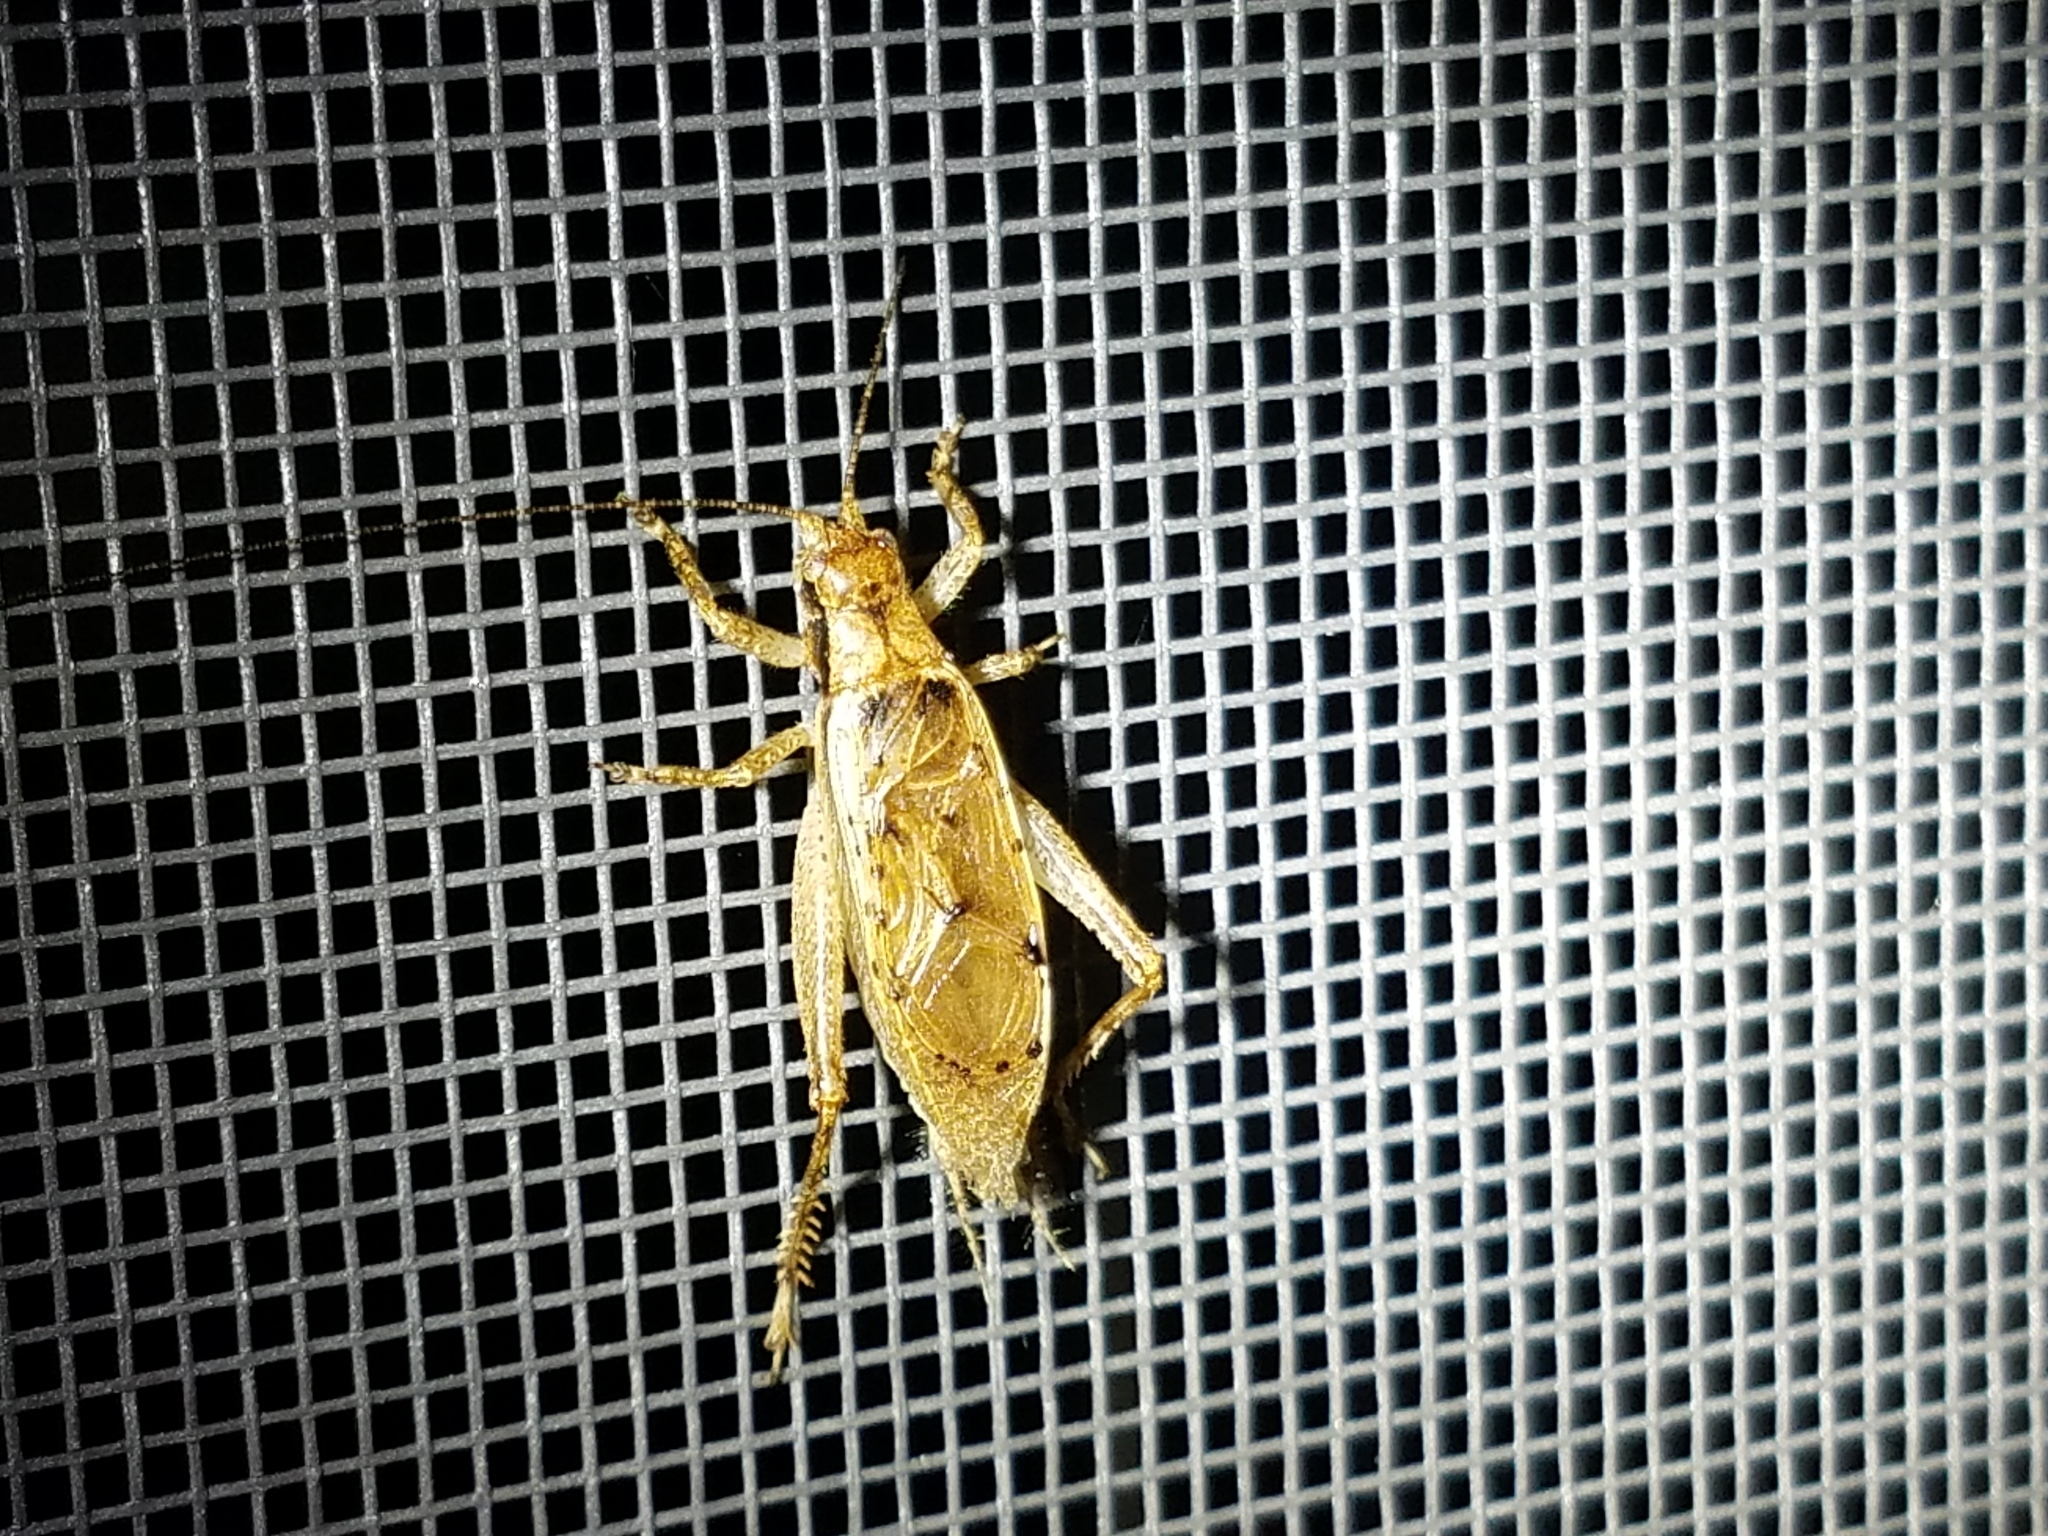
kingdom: Animalia
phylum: Arthropoda
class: Insecta
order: Orthoptera
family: Gryllidae
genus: Hapithus
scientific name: Hapithus saltator
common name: Jumping bush cricket
